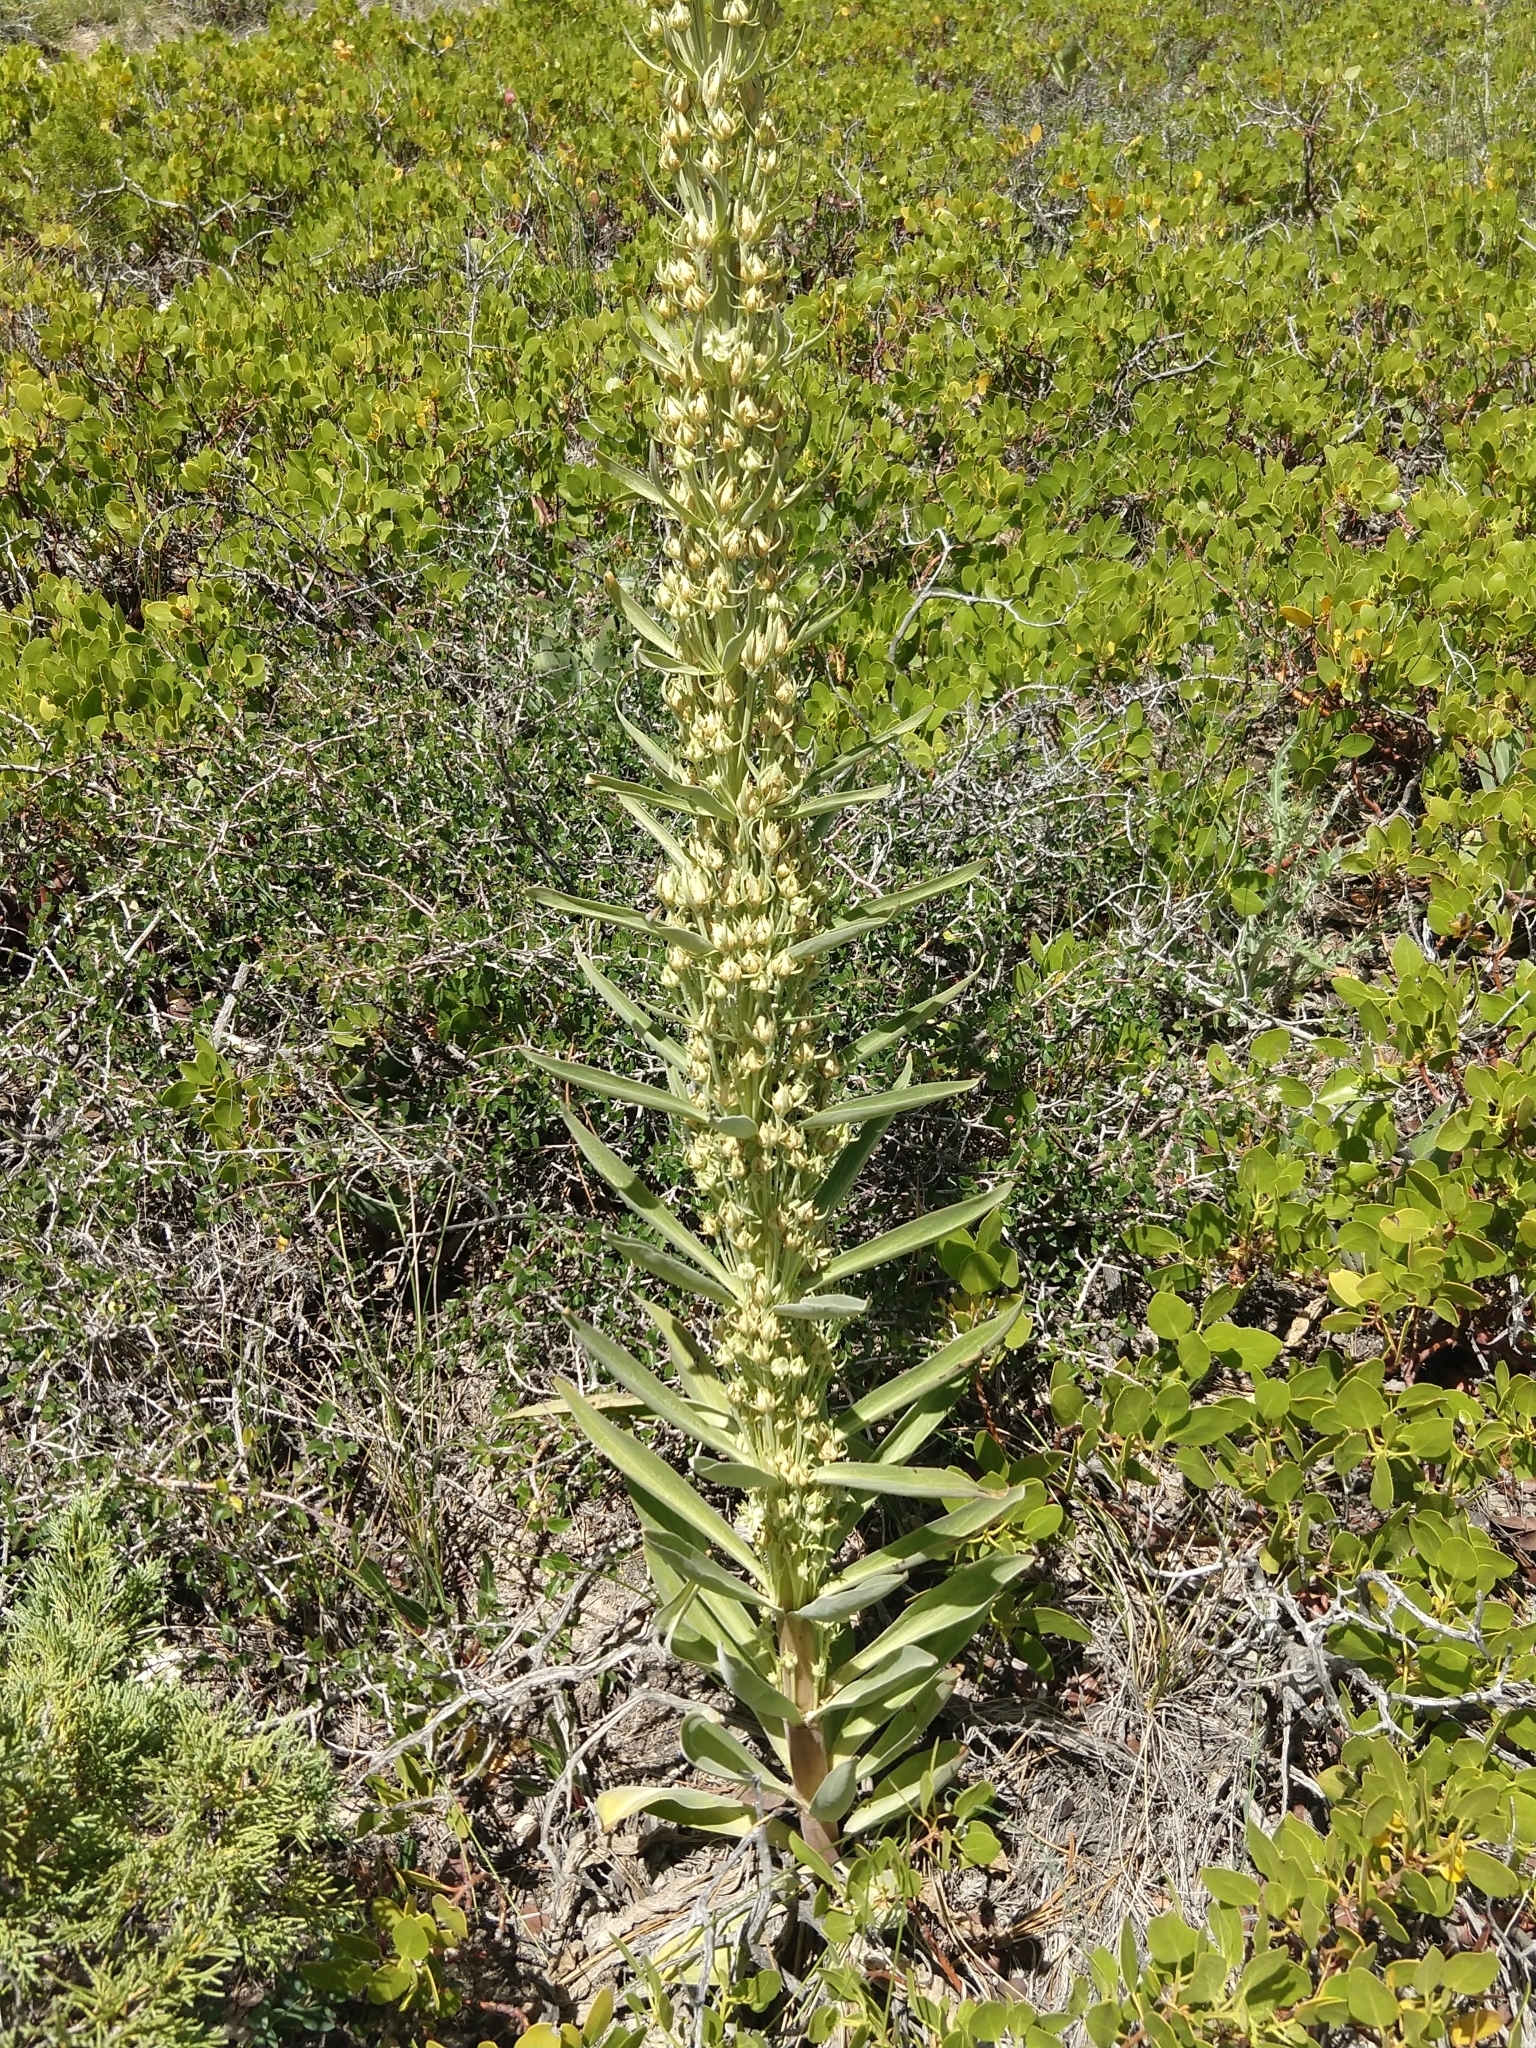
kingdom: Plantae
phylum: Tracheophyta
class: Magnoliopsida
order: Gentianales
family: Gentianaceae
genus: Frasera
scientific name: Frasera speciosa
